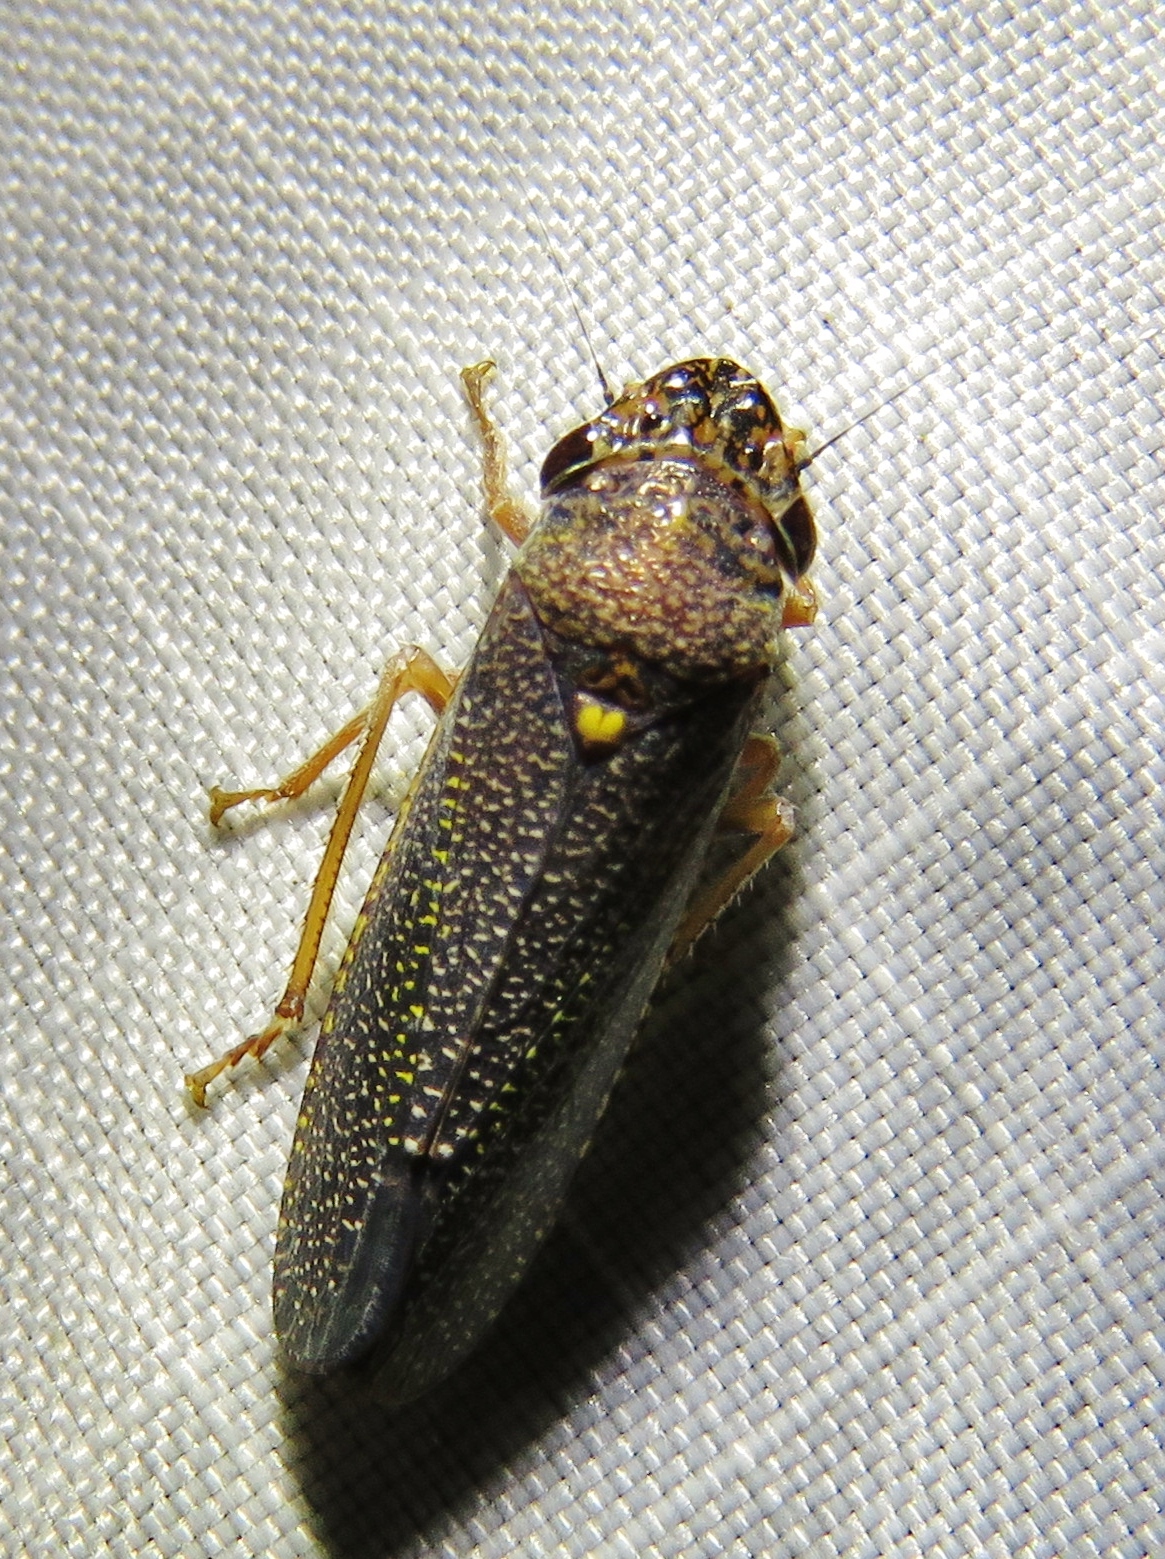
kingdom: Animalia
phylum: Arthropoda
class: Insecta
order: Hemiptera
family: Cicadellidae
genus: Paraulacizes
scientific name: Paraulacizes irrorata
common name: Speckled sharpshooter
